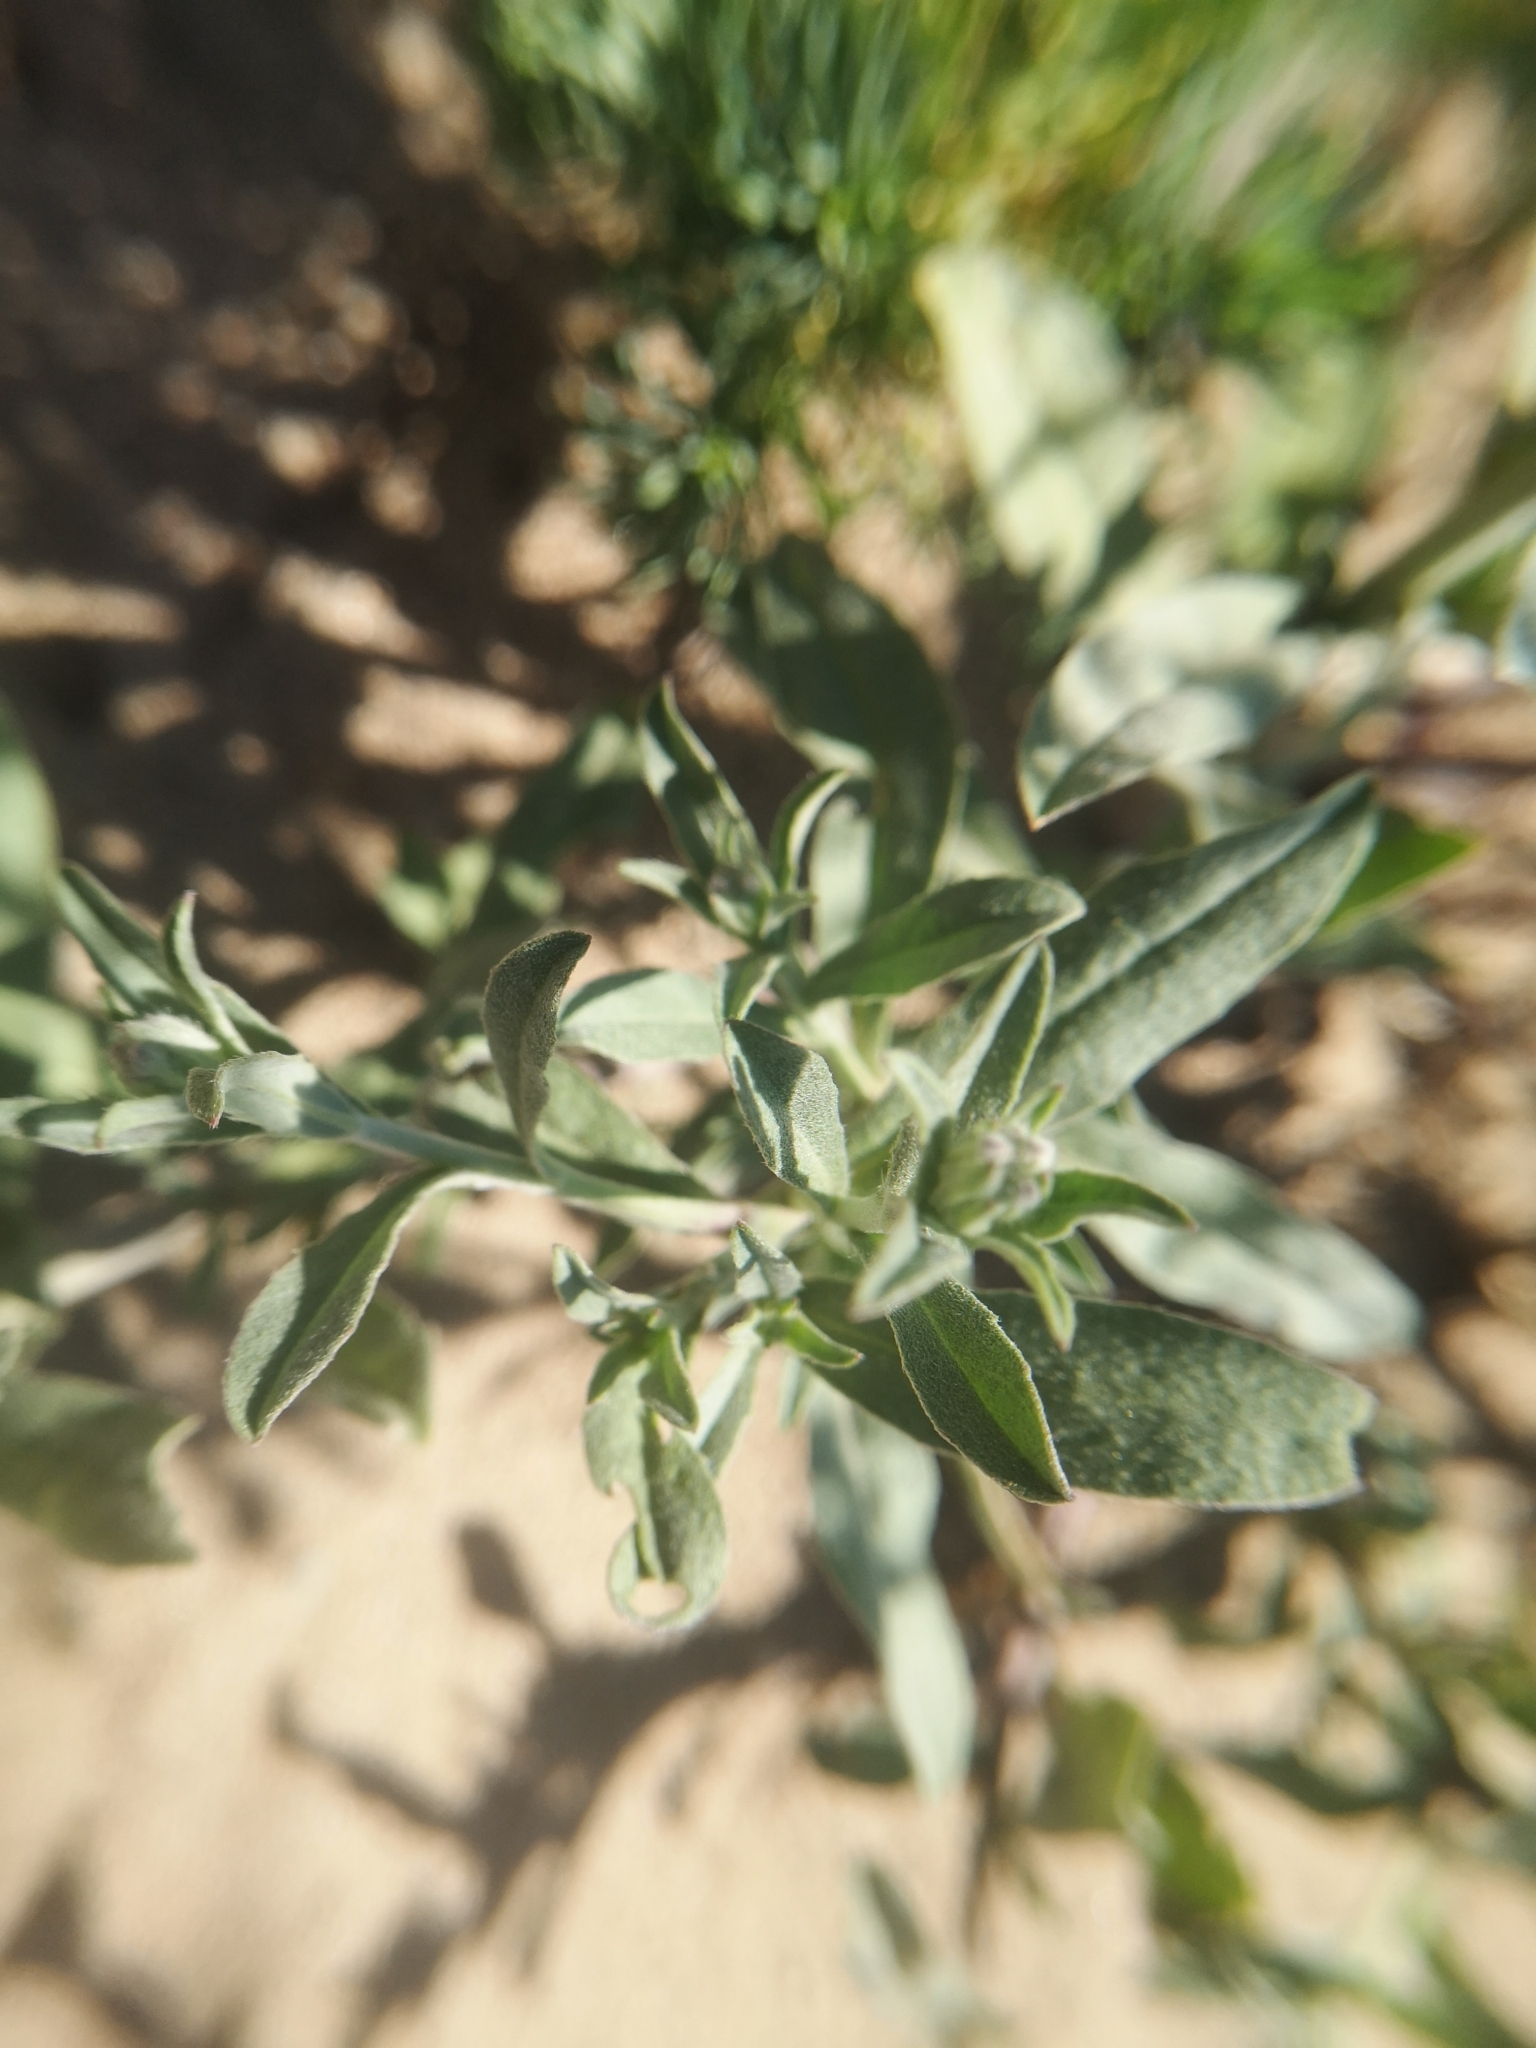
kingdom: Plantae
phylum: Tracheophyta
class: Magnoliopsida
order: Brassicales
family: Brassicaceae
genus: Berteroa
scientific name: Berteroa incana
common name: Hoary alison
